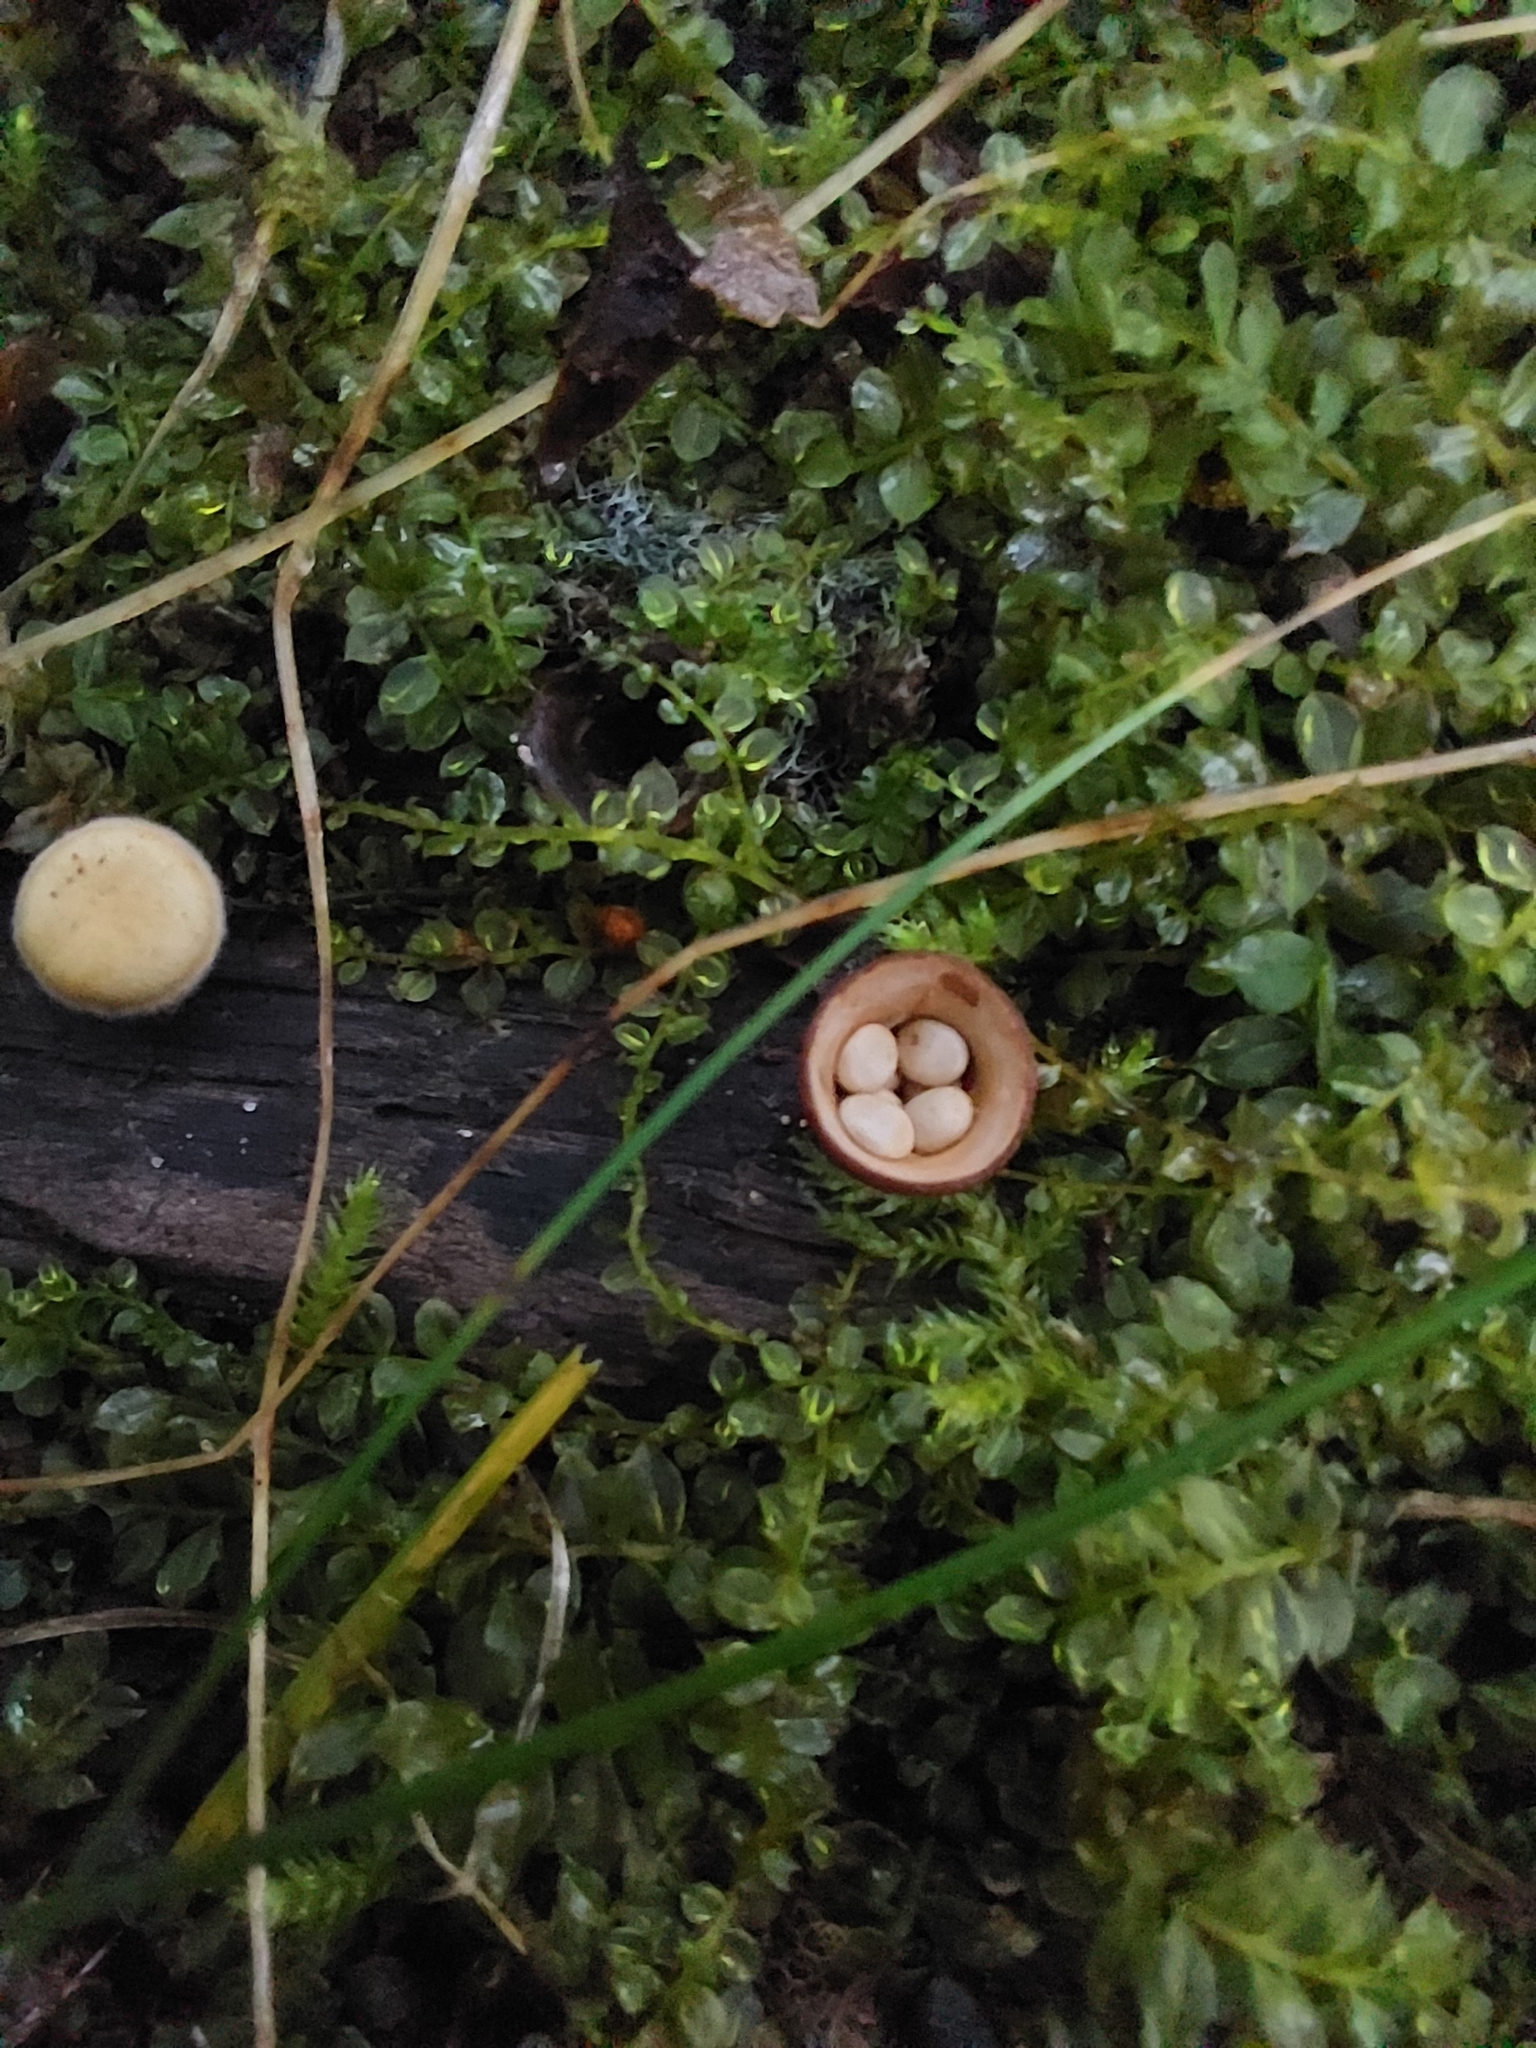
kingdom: Fungi
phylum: Basidiomycota
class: Agaricomycetes
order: Agaricales
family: Nidulariaceae
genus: Crucibulum
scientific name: Crucibulum laeve
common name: Common bird's nest
